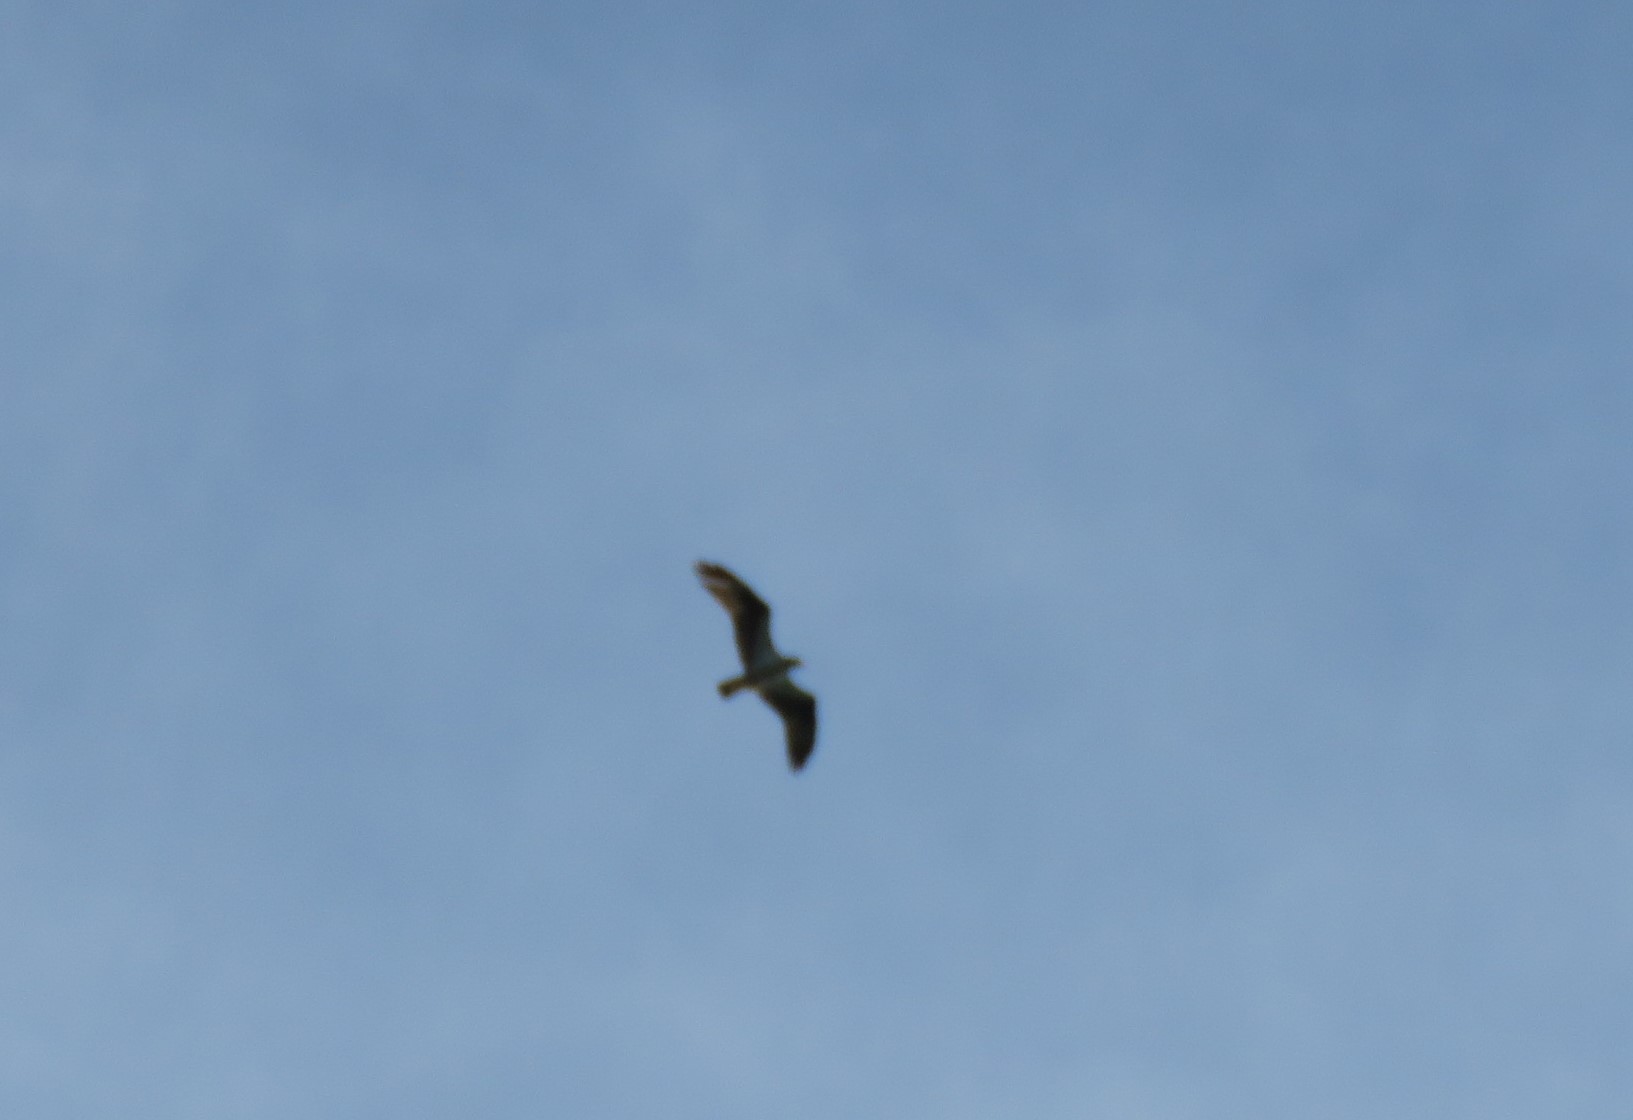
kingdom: Animalia
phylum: Chordata
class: Aves
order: Accipitriformes
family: Pandionidae
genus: Pandion
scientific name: Pandion haliaetus
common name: Osprey
